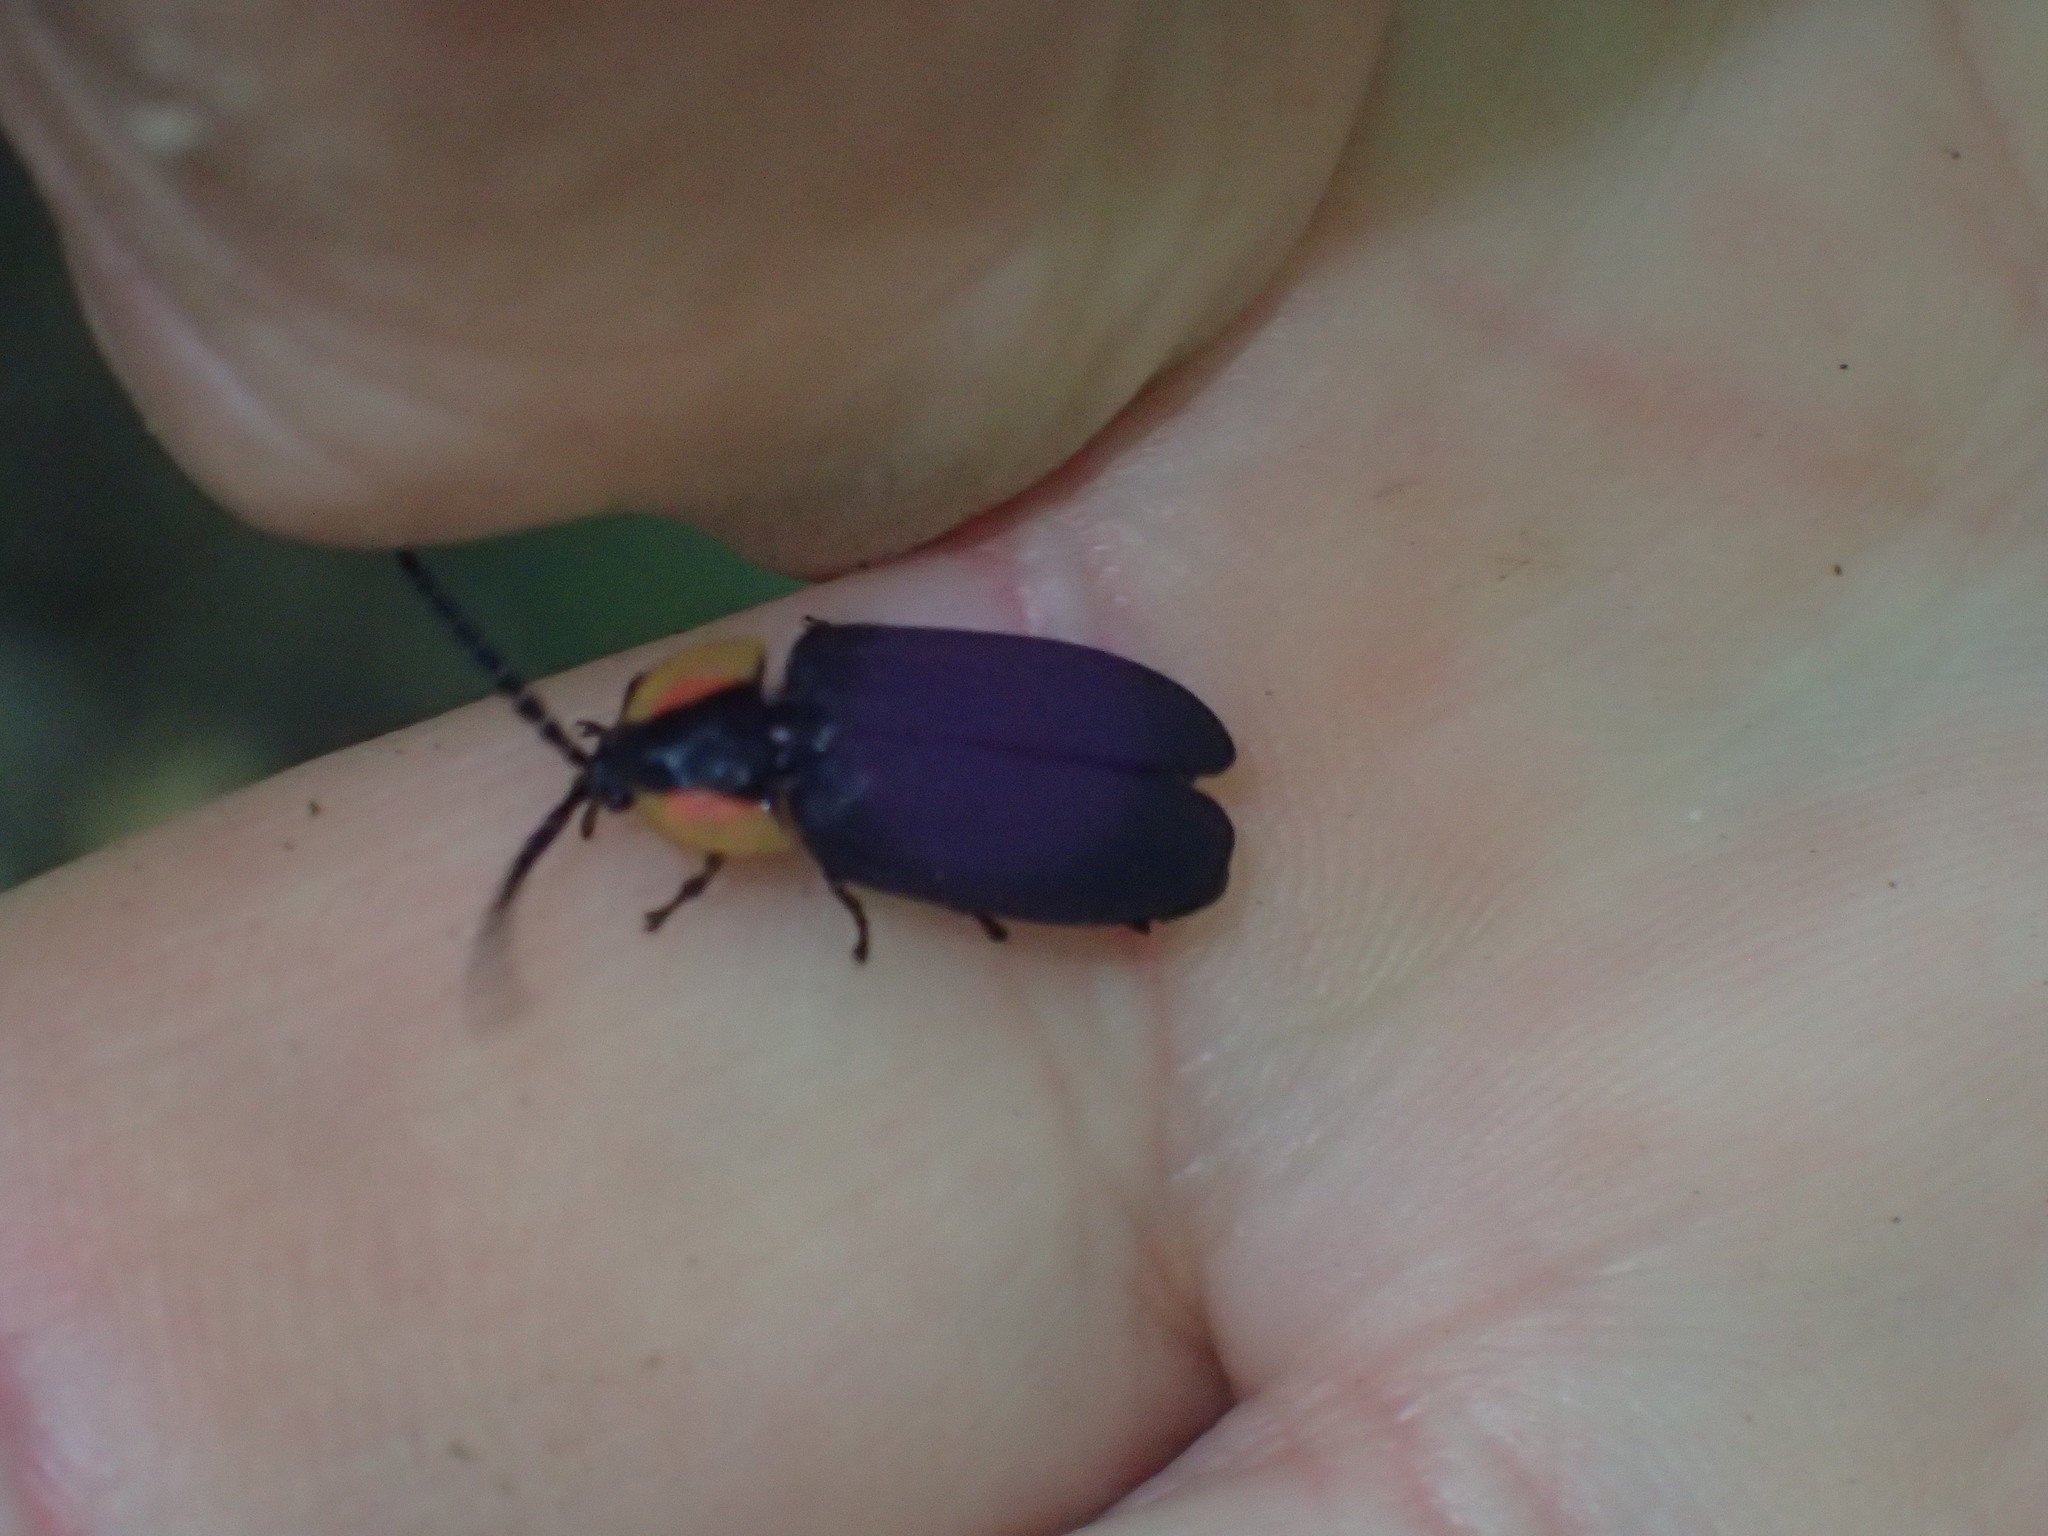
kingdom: Animalia
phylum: Arthropoda
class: Insecta
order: Coleoptera
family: Lampyridae
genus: Lucidota
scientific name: Lucidota atra
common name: Black firefly
